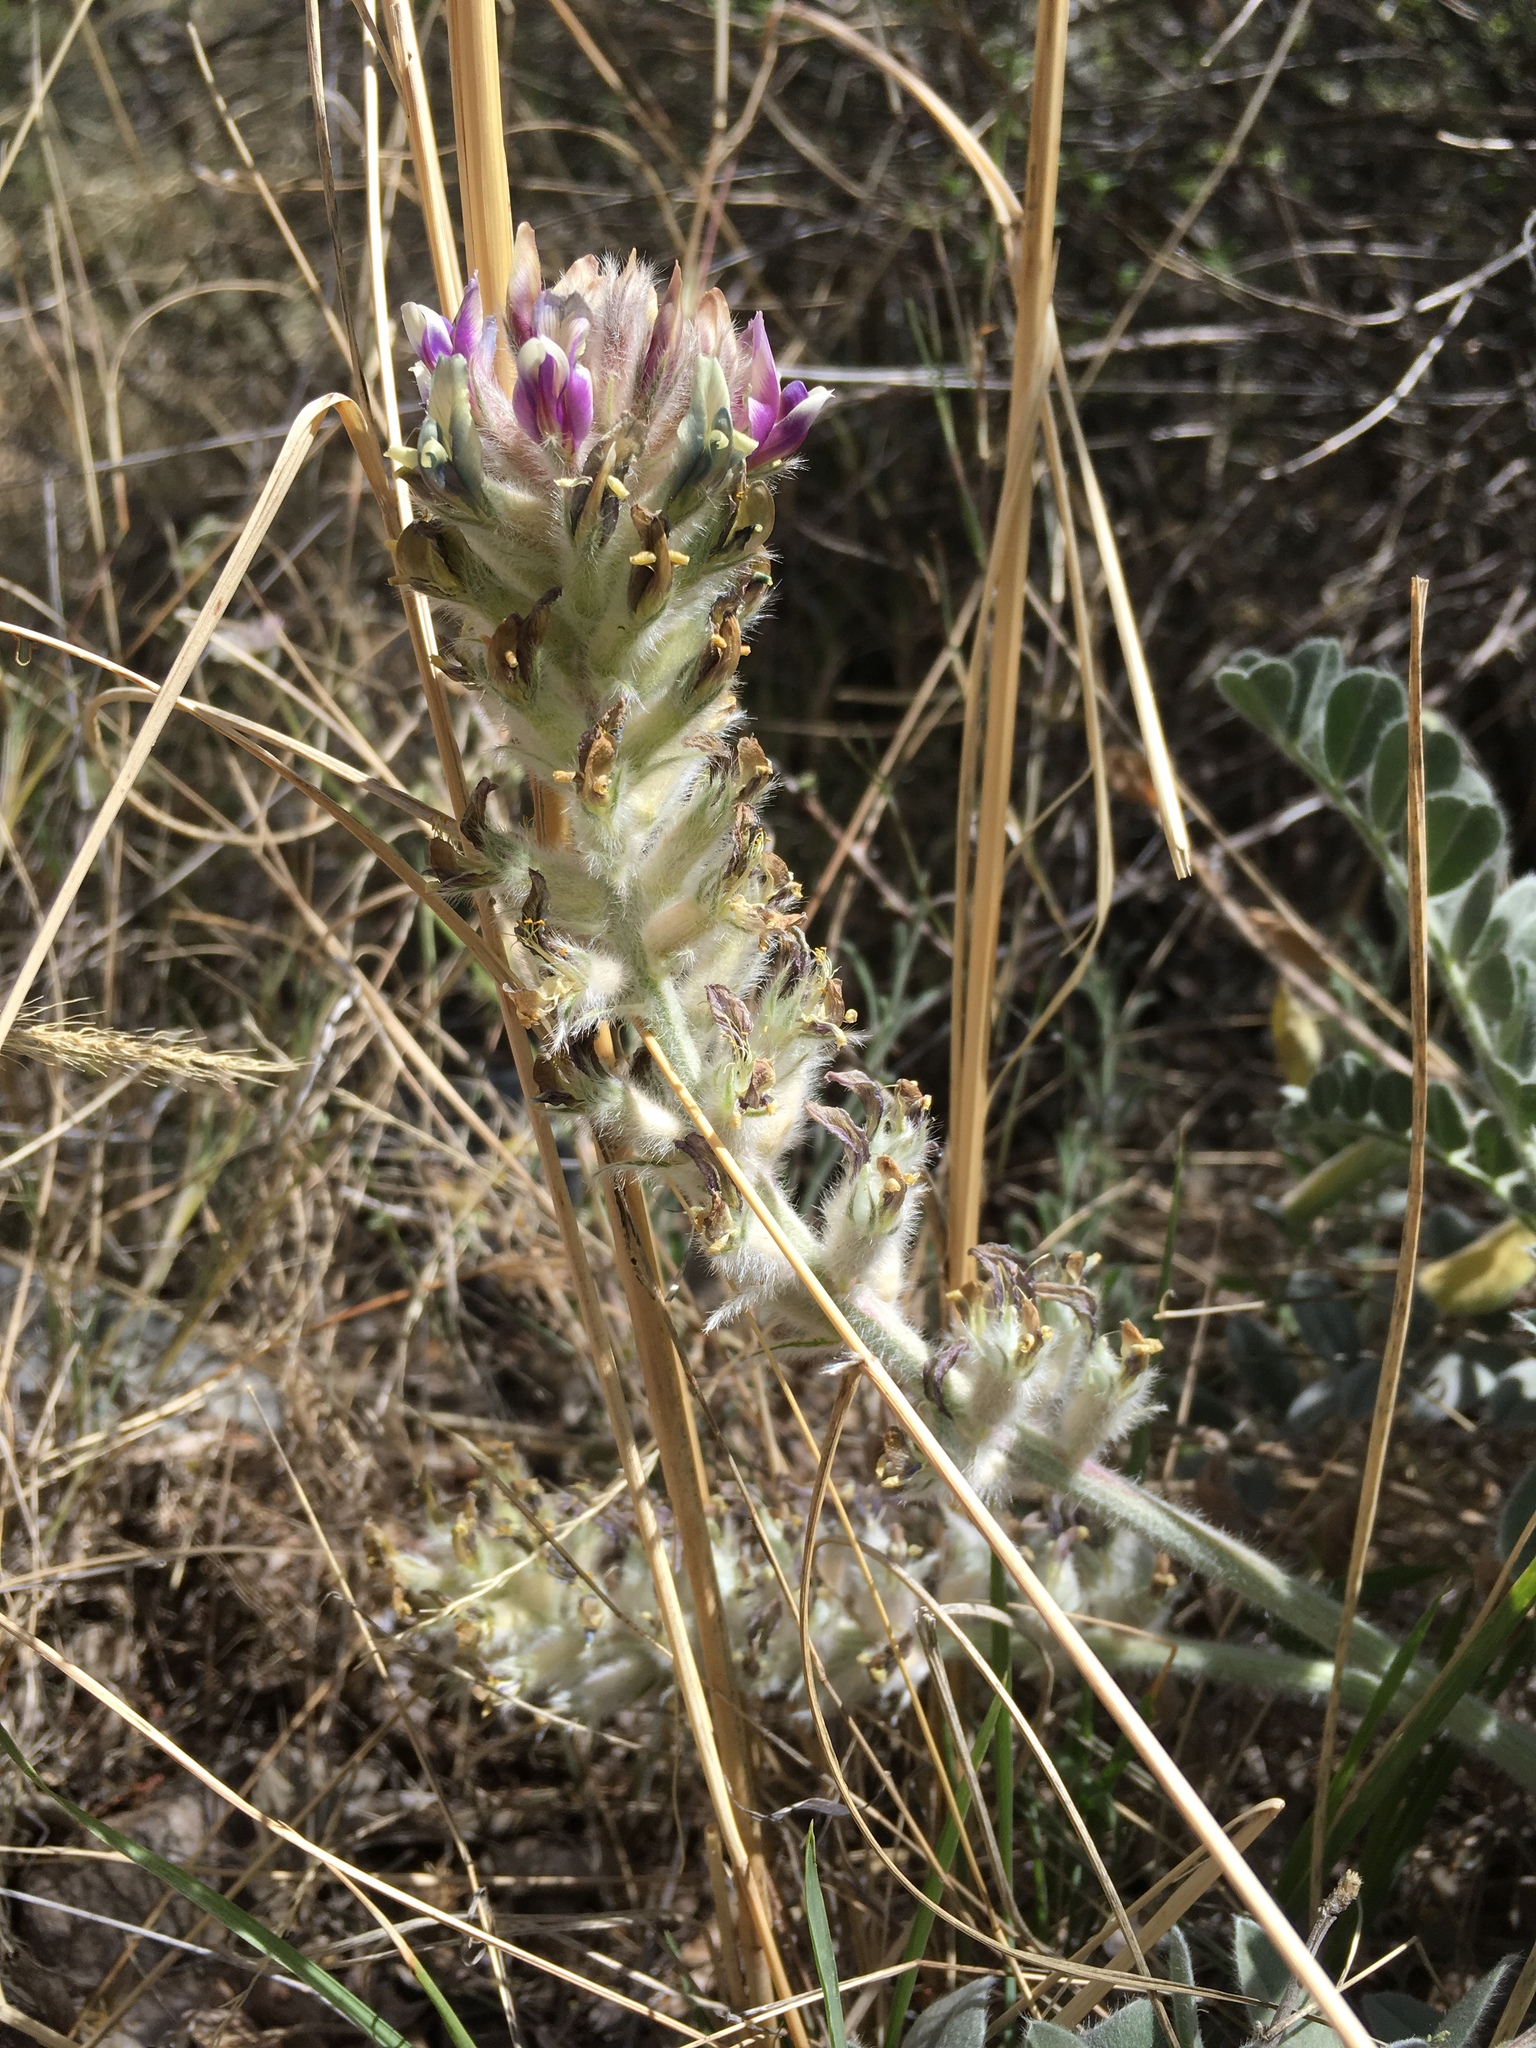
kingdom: Plantae
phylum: Tracheophyta
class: Magnoliopsida
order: Fabales
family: Fabaceae
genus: Astragalus
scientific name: Astragalus mollissimus
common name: Woolly locoweed
